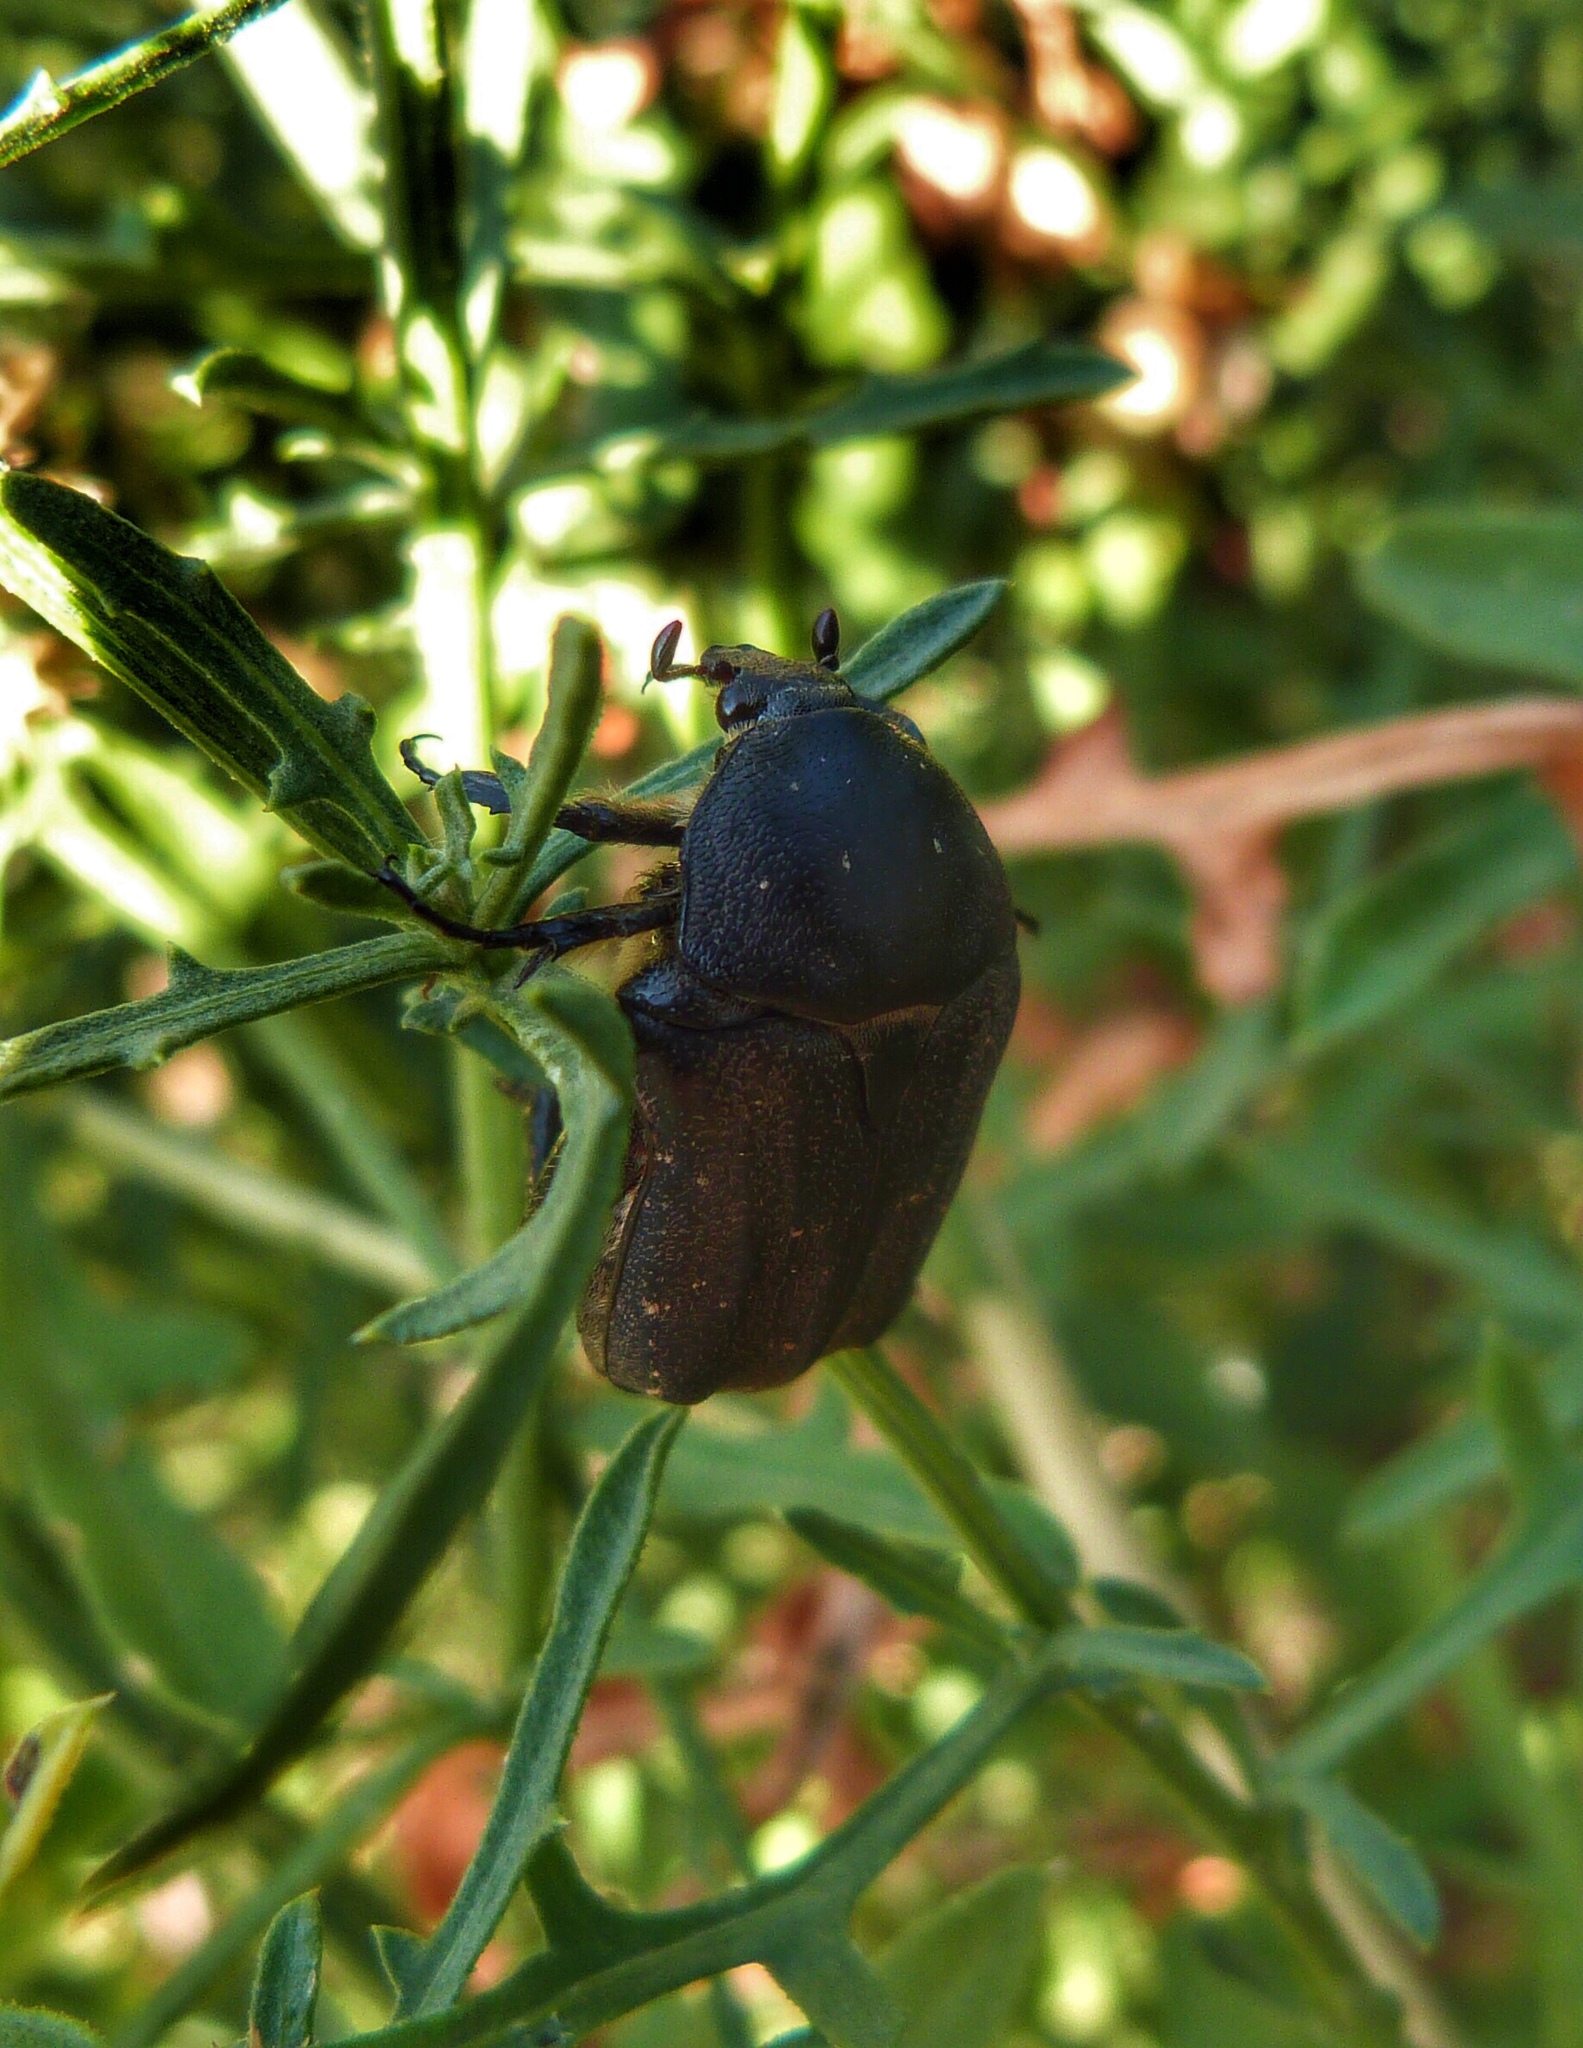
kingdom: Animalia
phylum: Arthropoda
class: Insecta
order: Coleoptera
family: Scarabaeidae
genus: Protaetia
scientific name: Protaetia morio
